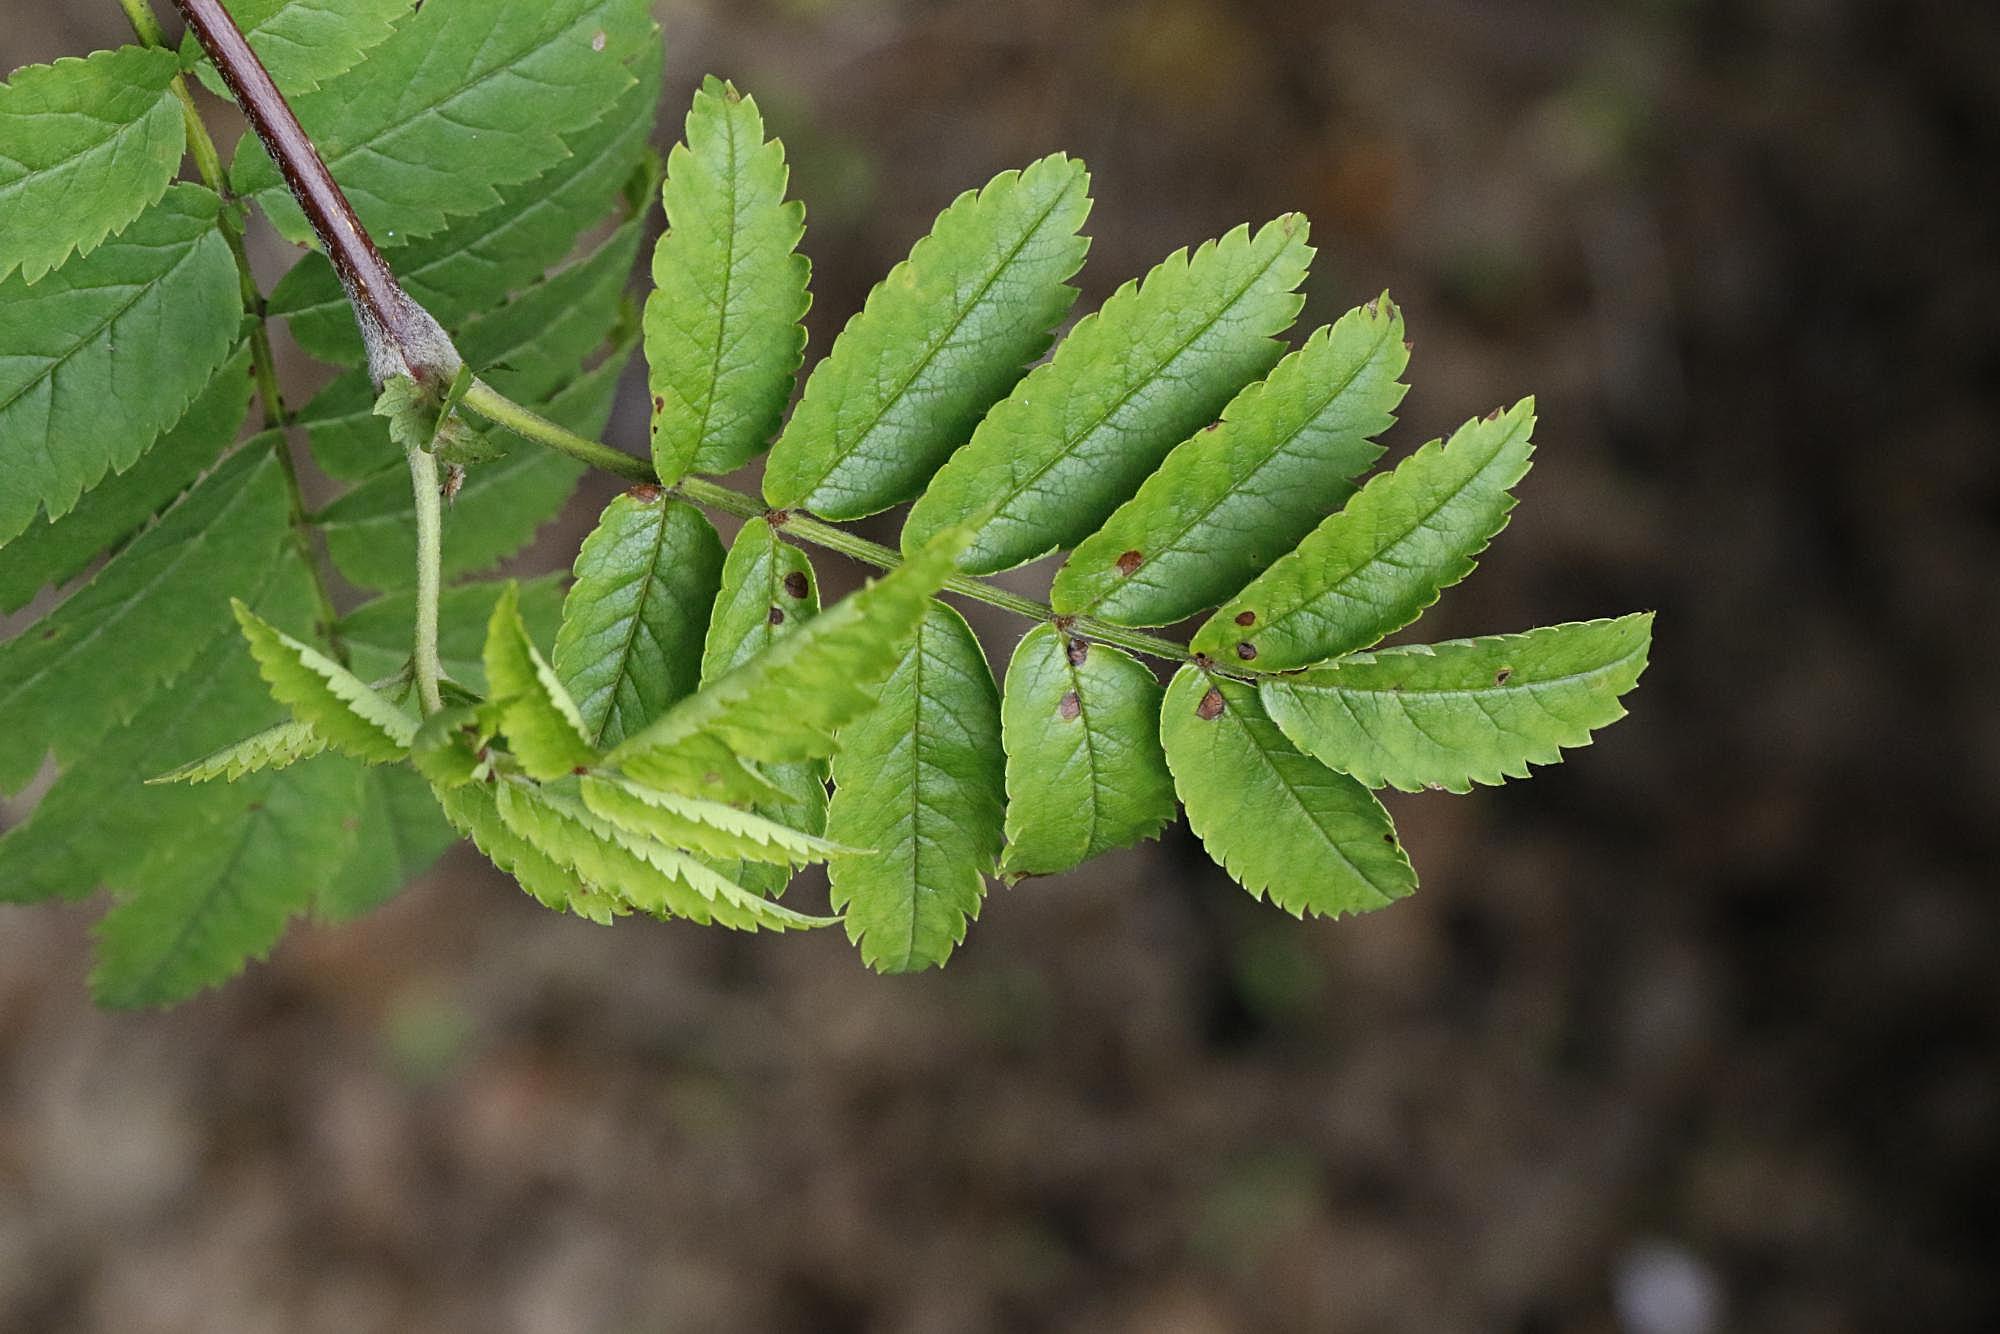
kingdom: Plantae
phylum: Tracheophyta
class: Magnoliopsida
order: Rosales
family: Rosaceae
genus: Sorbus
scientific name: Sorbus aucuparia
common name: Rowan
